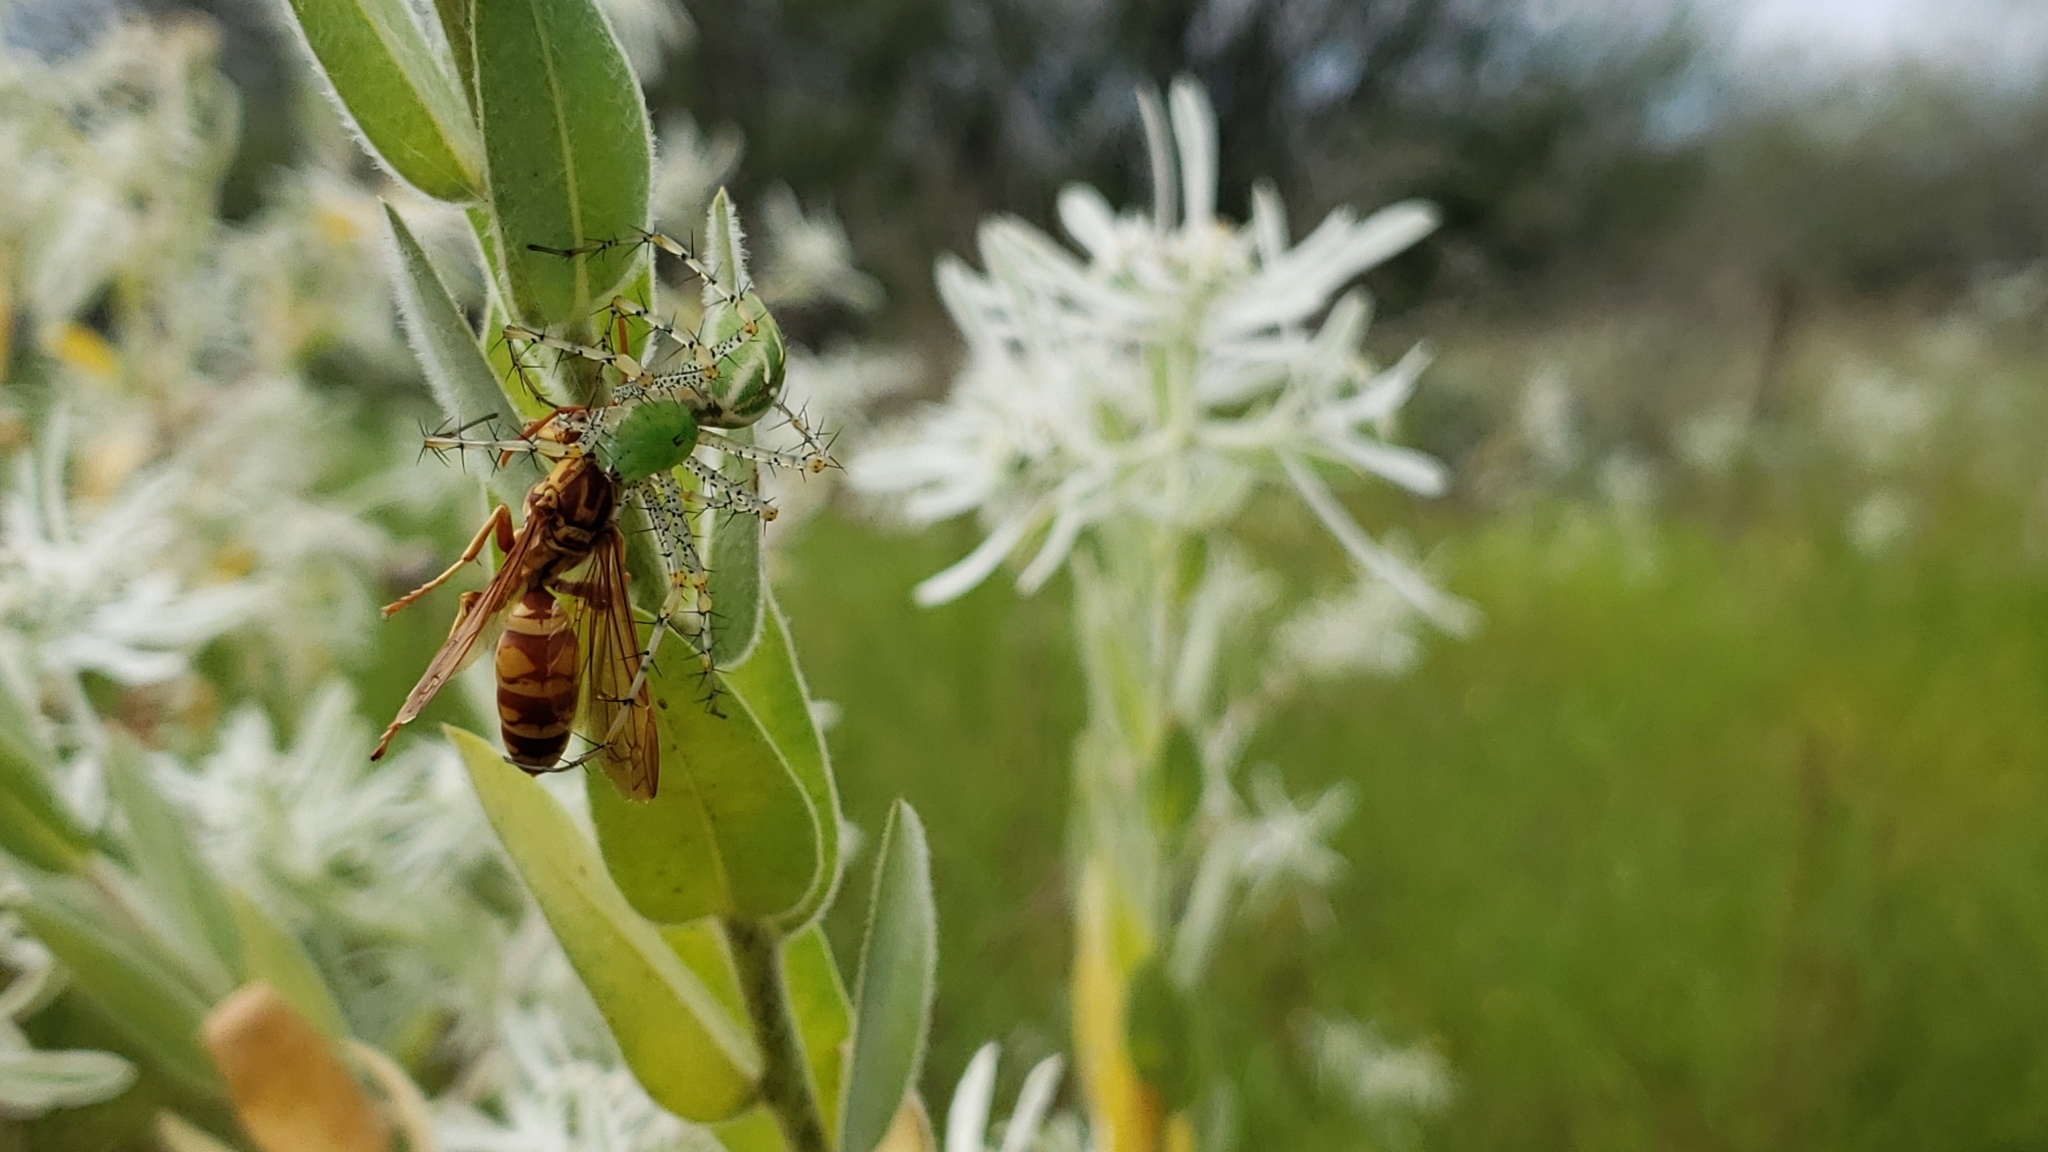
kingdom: Animalia
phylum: Arthropoda
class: Insecta
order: Hymenoptera
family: Eumenidae
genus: Polistes
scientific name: Polistes apachus
